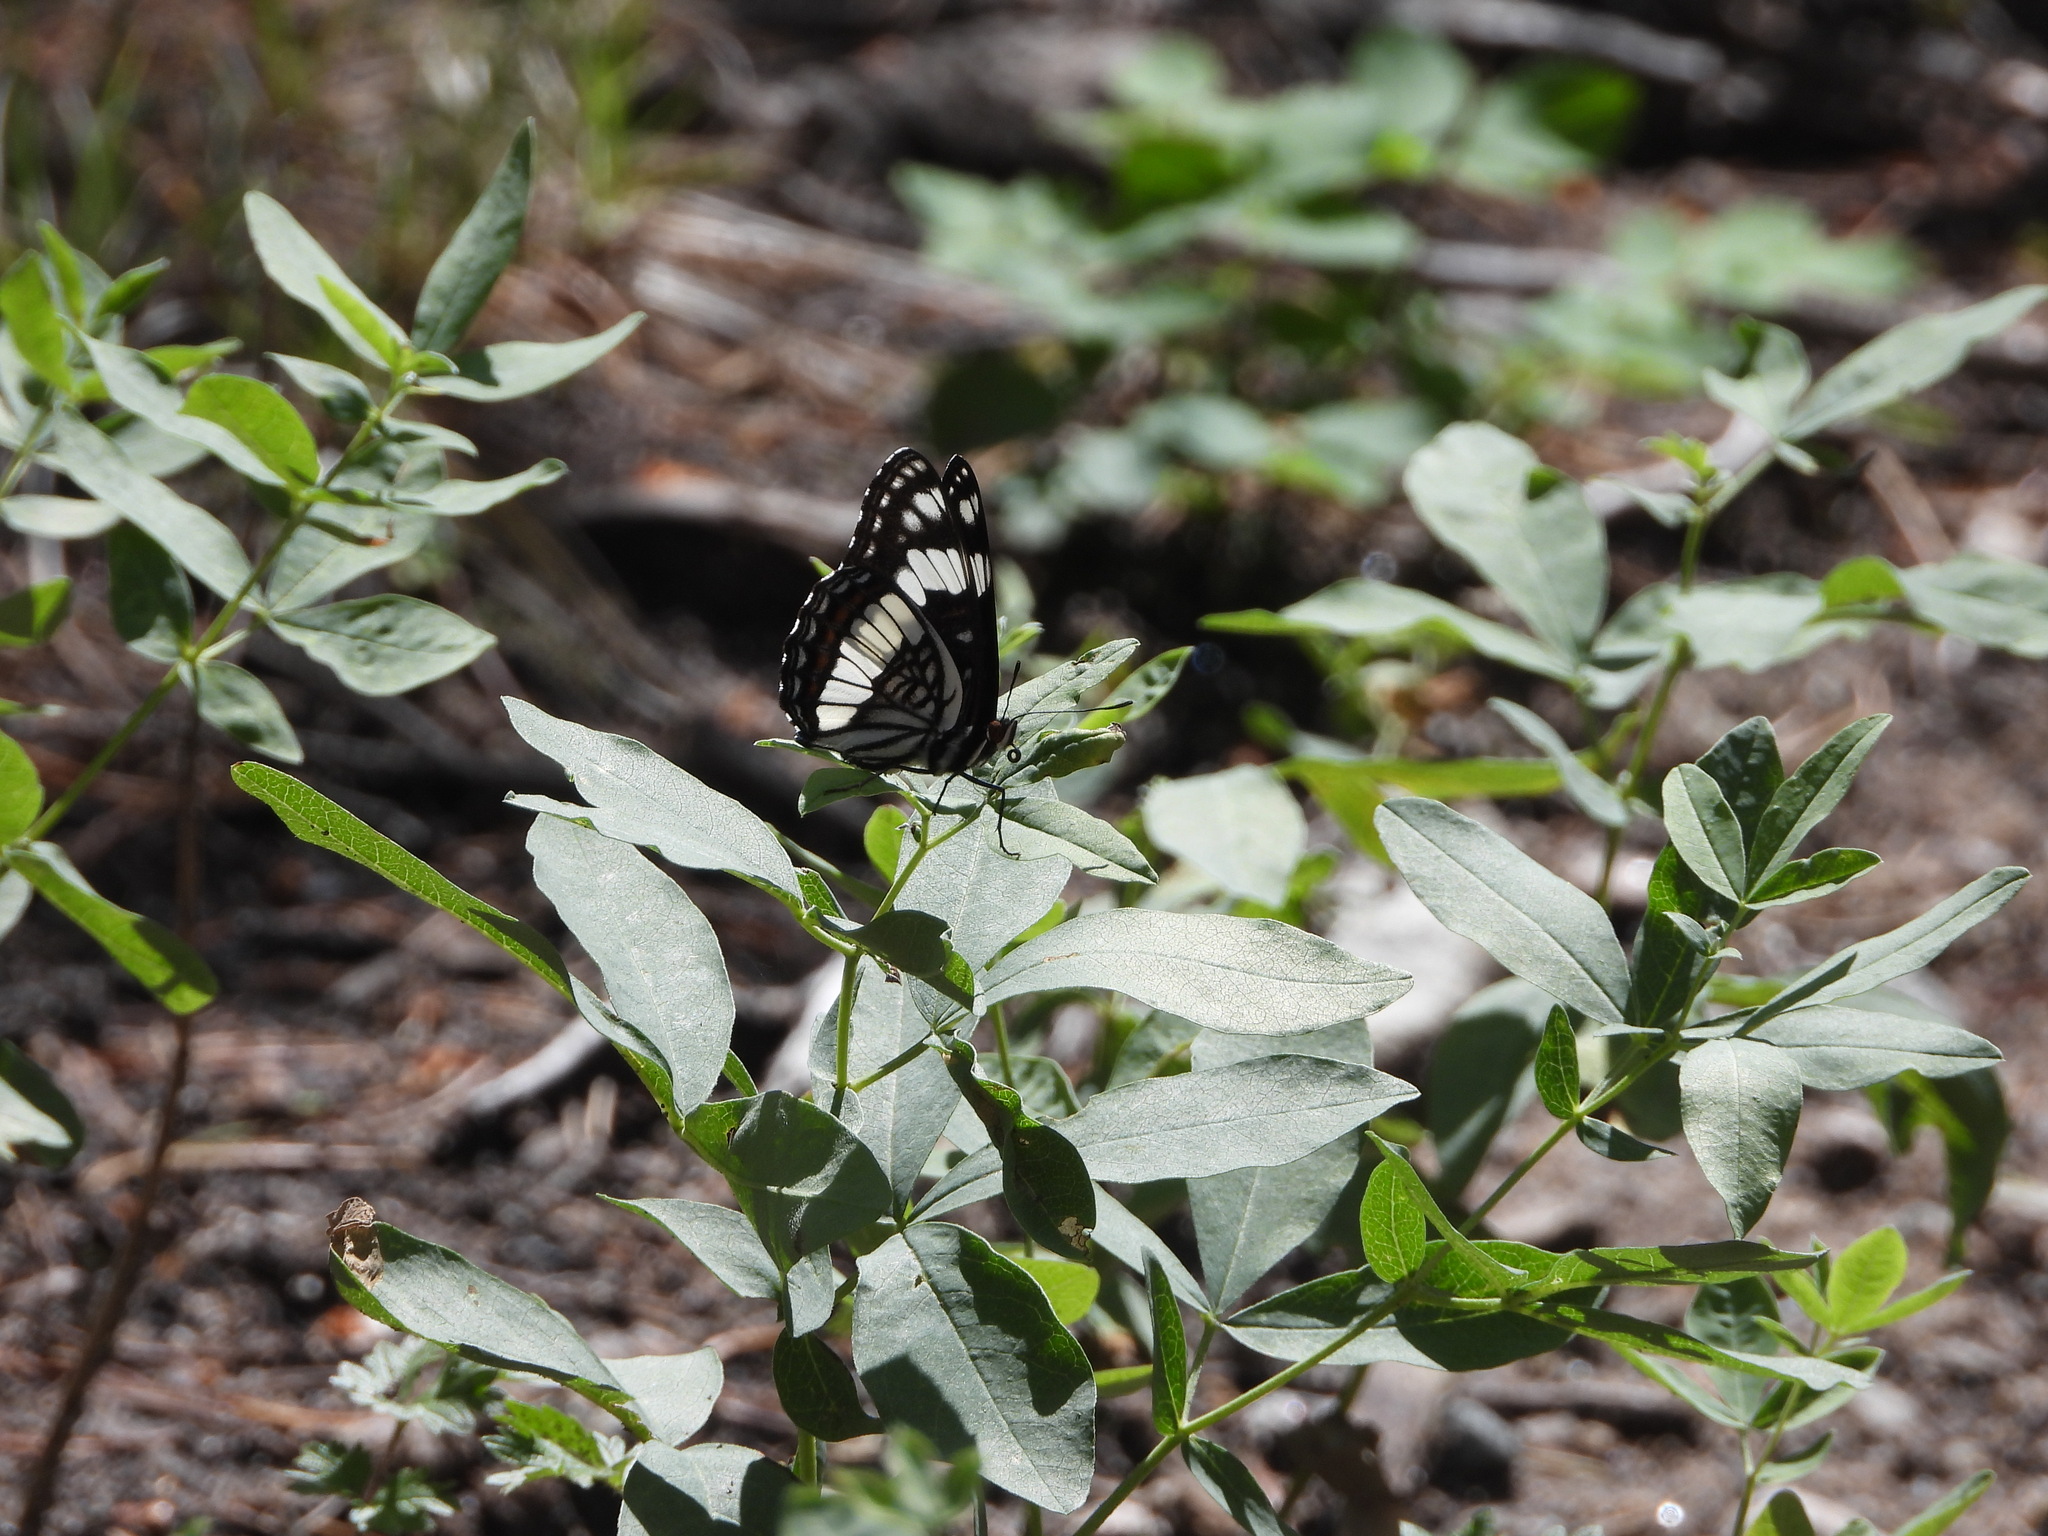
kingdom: Animalia
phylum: Arthropoda
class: Insecta
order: Lepidoptera
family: Nymphalidae
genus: Limenitis
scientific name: Limenitis weidemeyerii
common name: Weidemeyer's admiral
